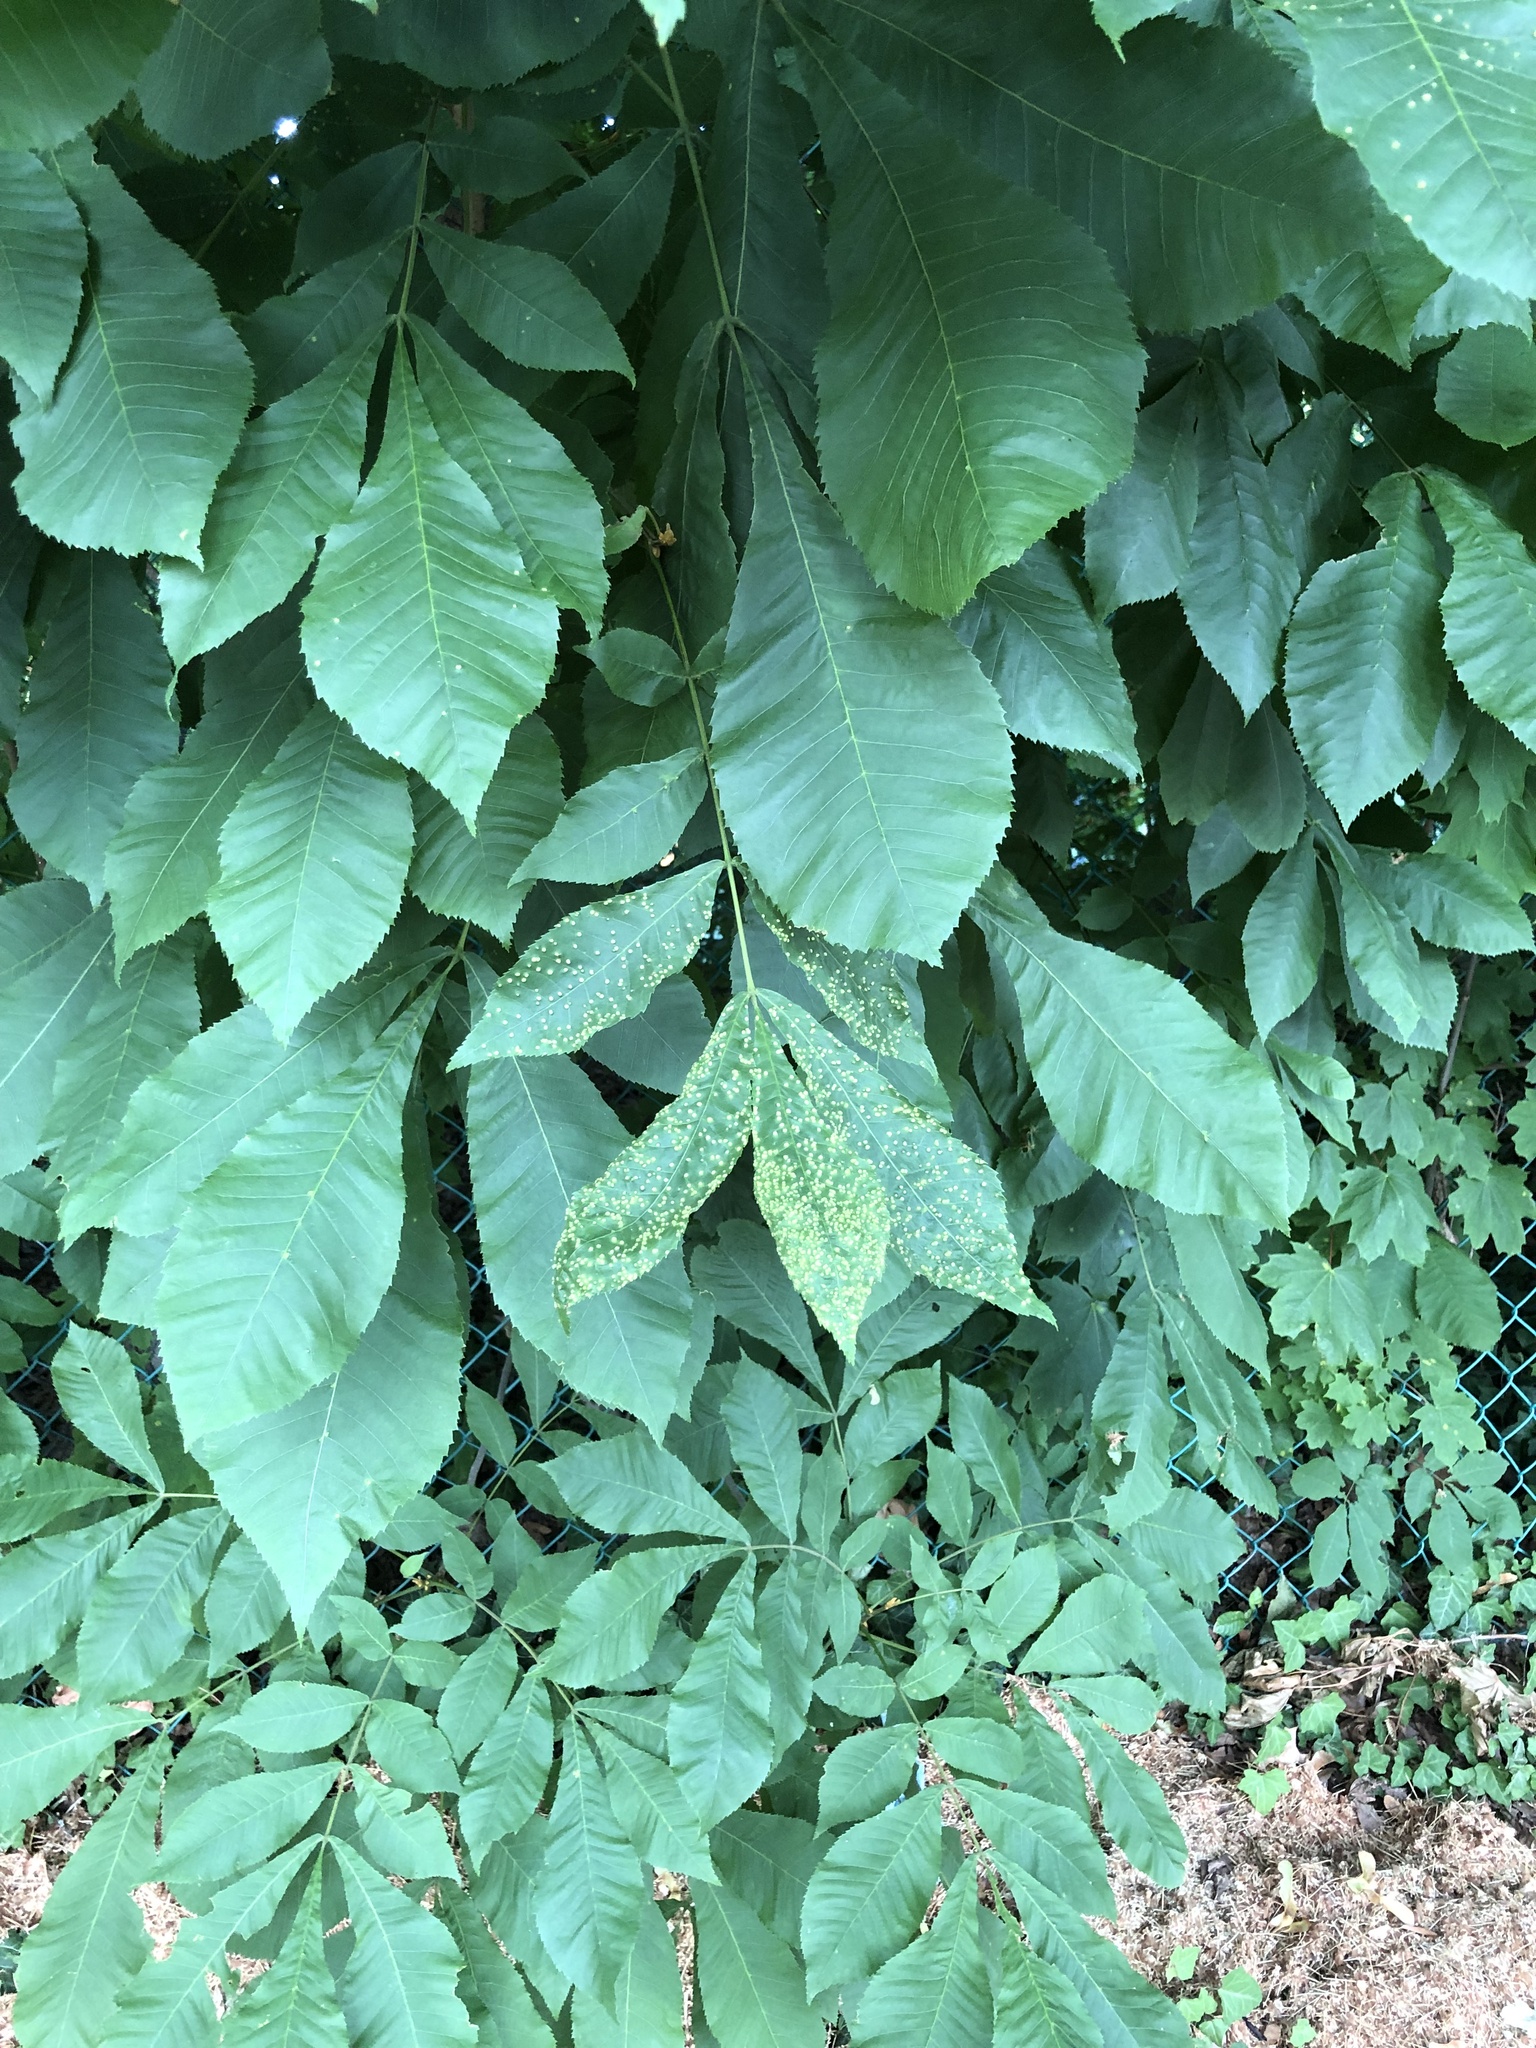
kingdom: Animalia
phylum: Arthropoda
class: Insecta
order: Hemiptera
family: Phylloxeridae
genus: Phylloxera
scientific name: Phylloxera caryae-semen
